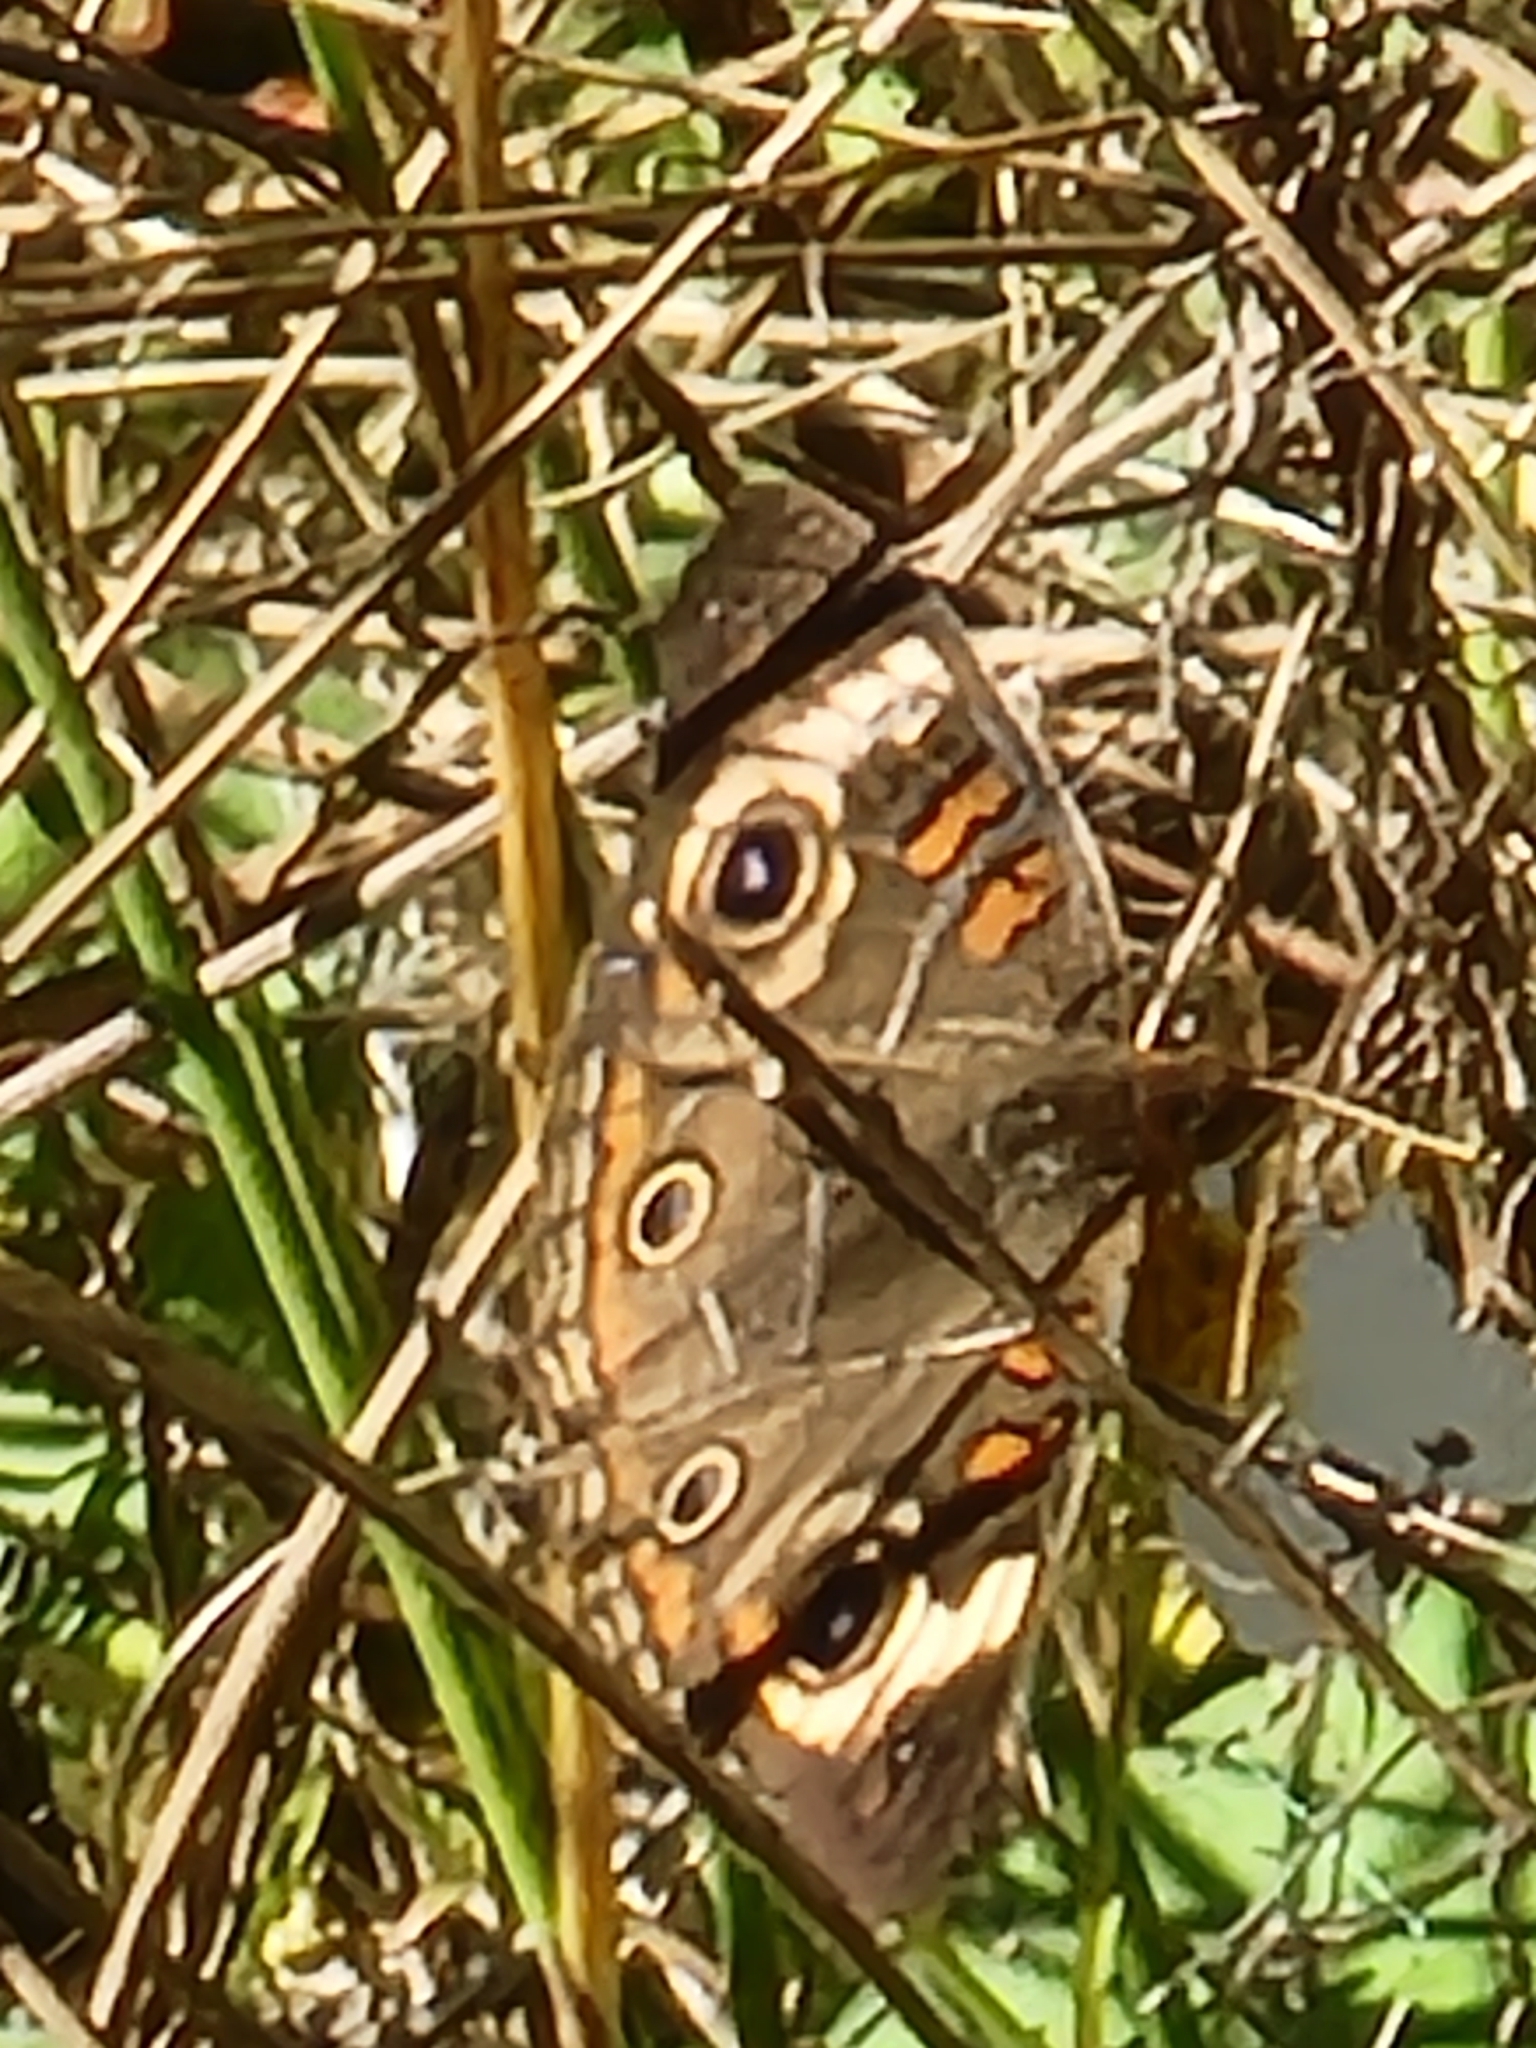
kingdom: Animalia
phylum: Arthropoda
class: Insecta
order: Lepidoptera
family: Nymphalidae
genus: Junonia
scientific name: Junonia coenia
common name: Common buckeye
